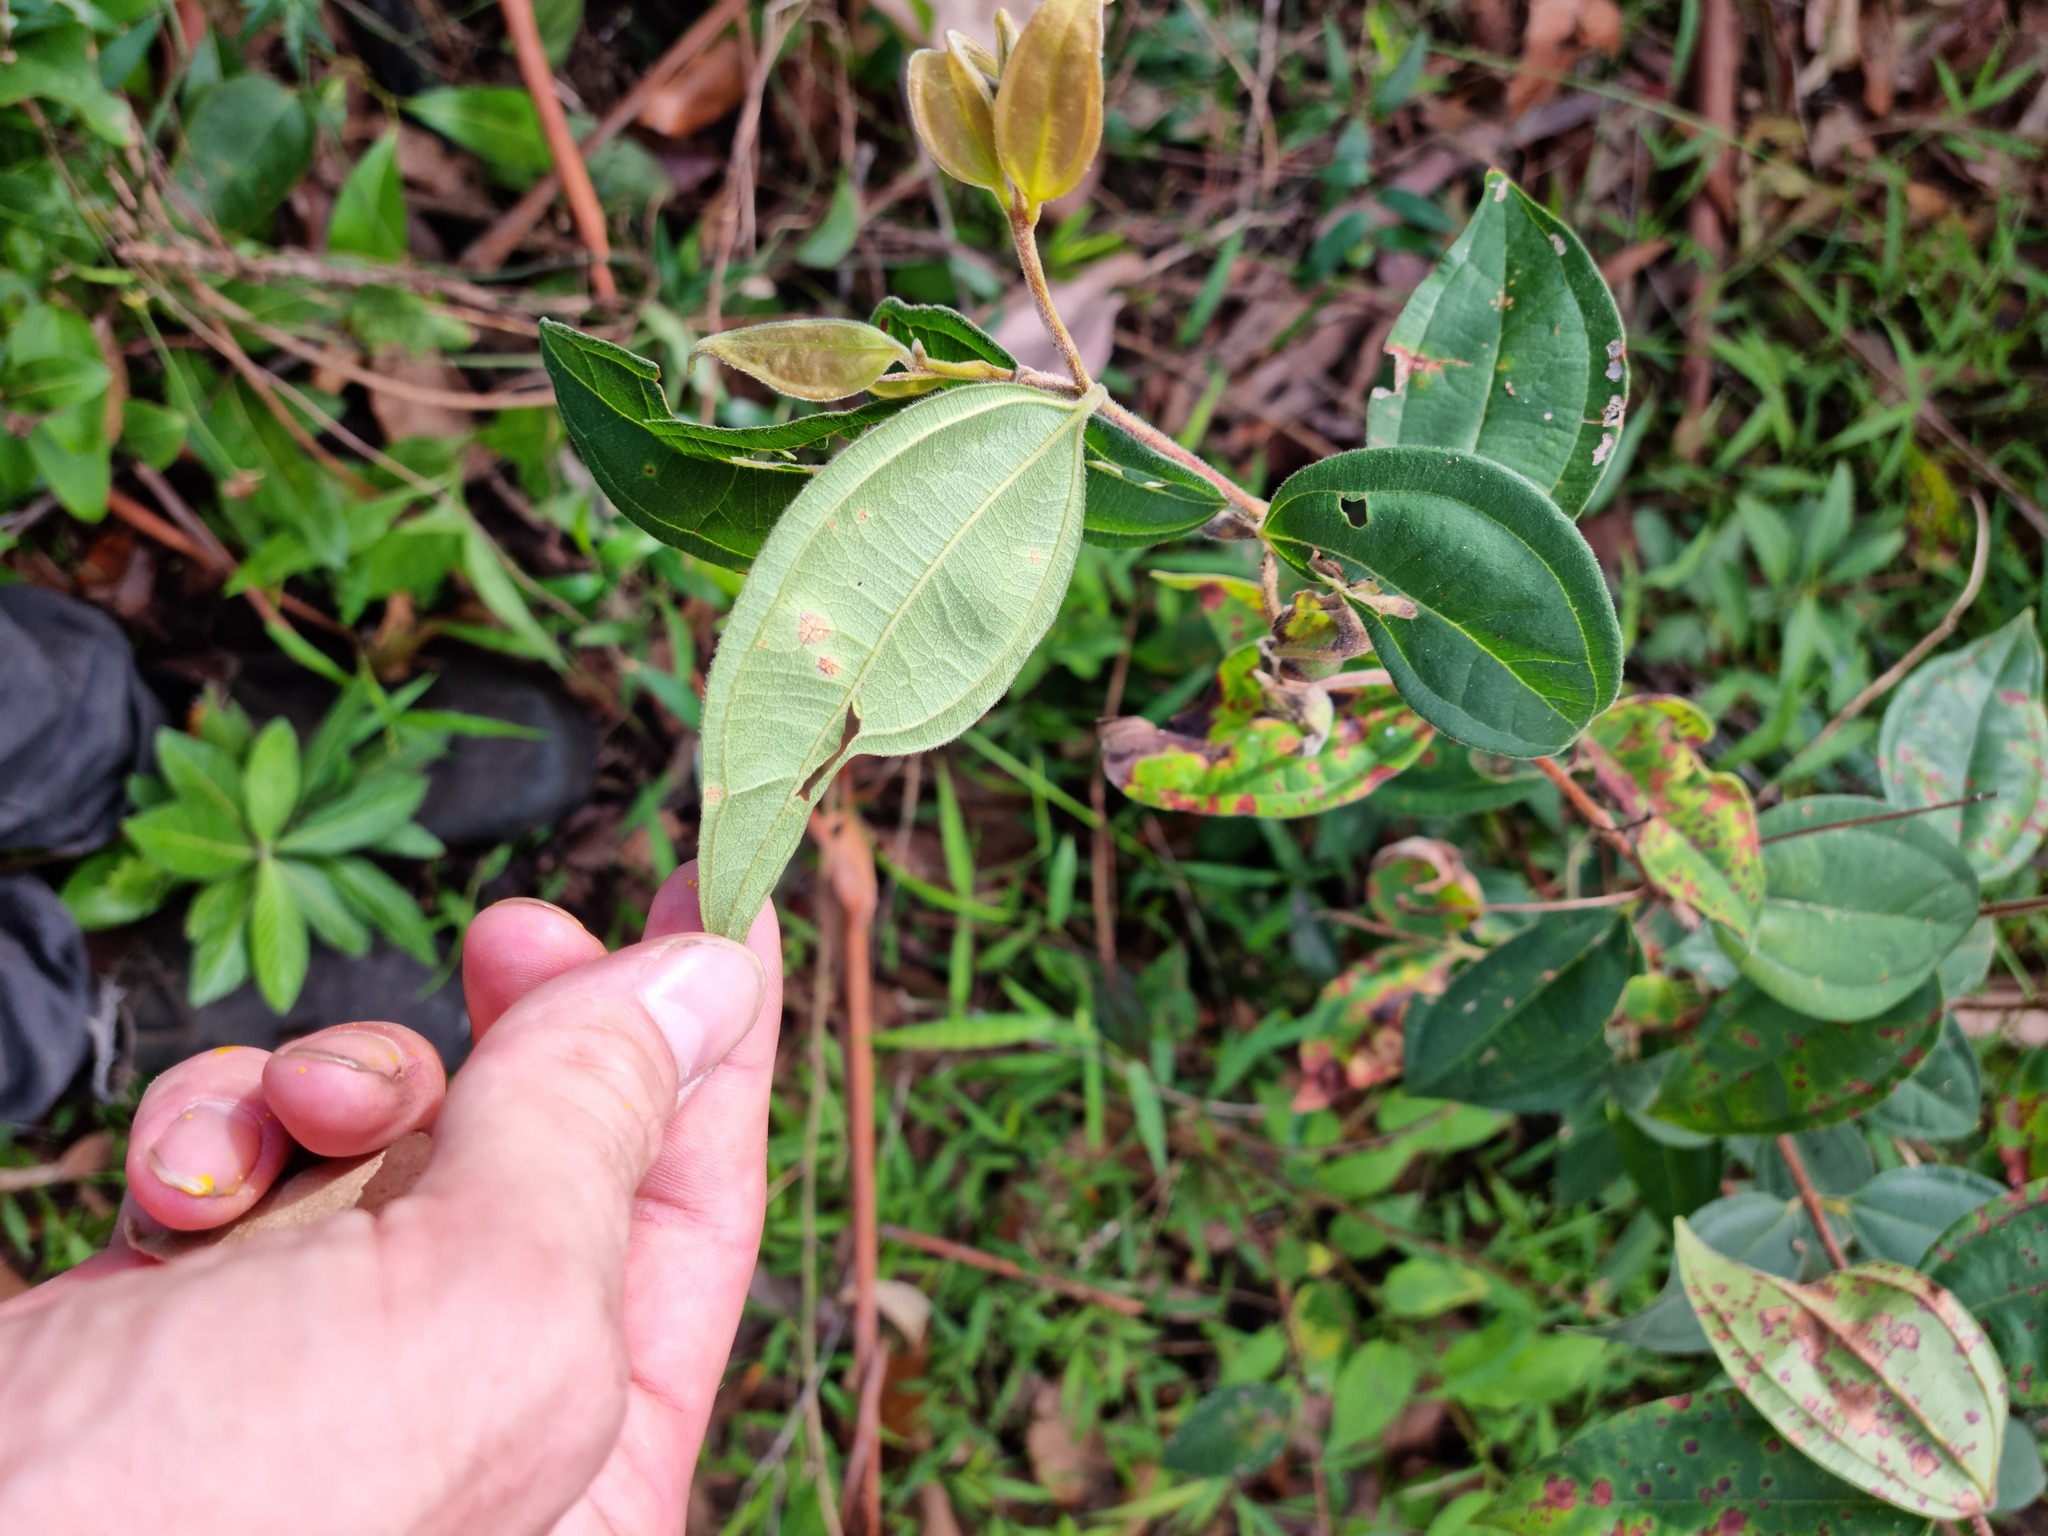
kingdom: Fungi
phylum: Basidiomycota
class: Pucciniomycetes
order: Pucciniales
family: Sphaerophragmiaceae
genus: Austropuccinia
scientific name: Austropuccinia psidii
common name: Myrtle rust
